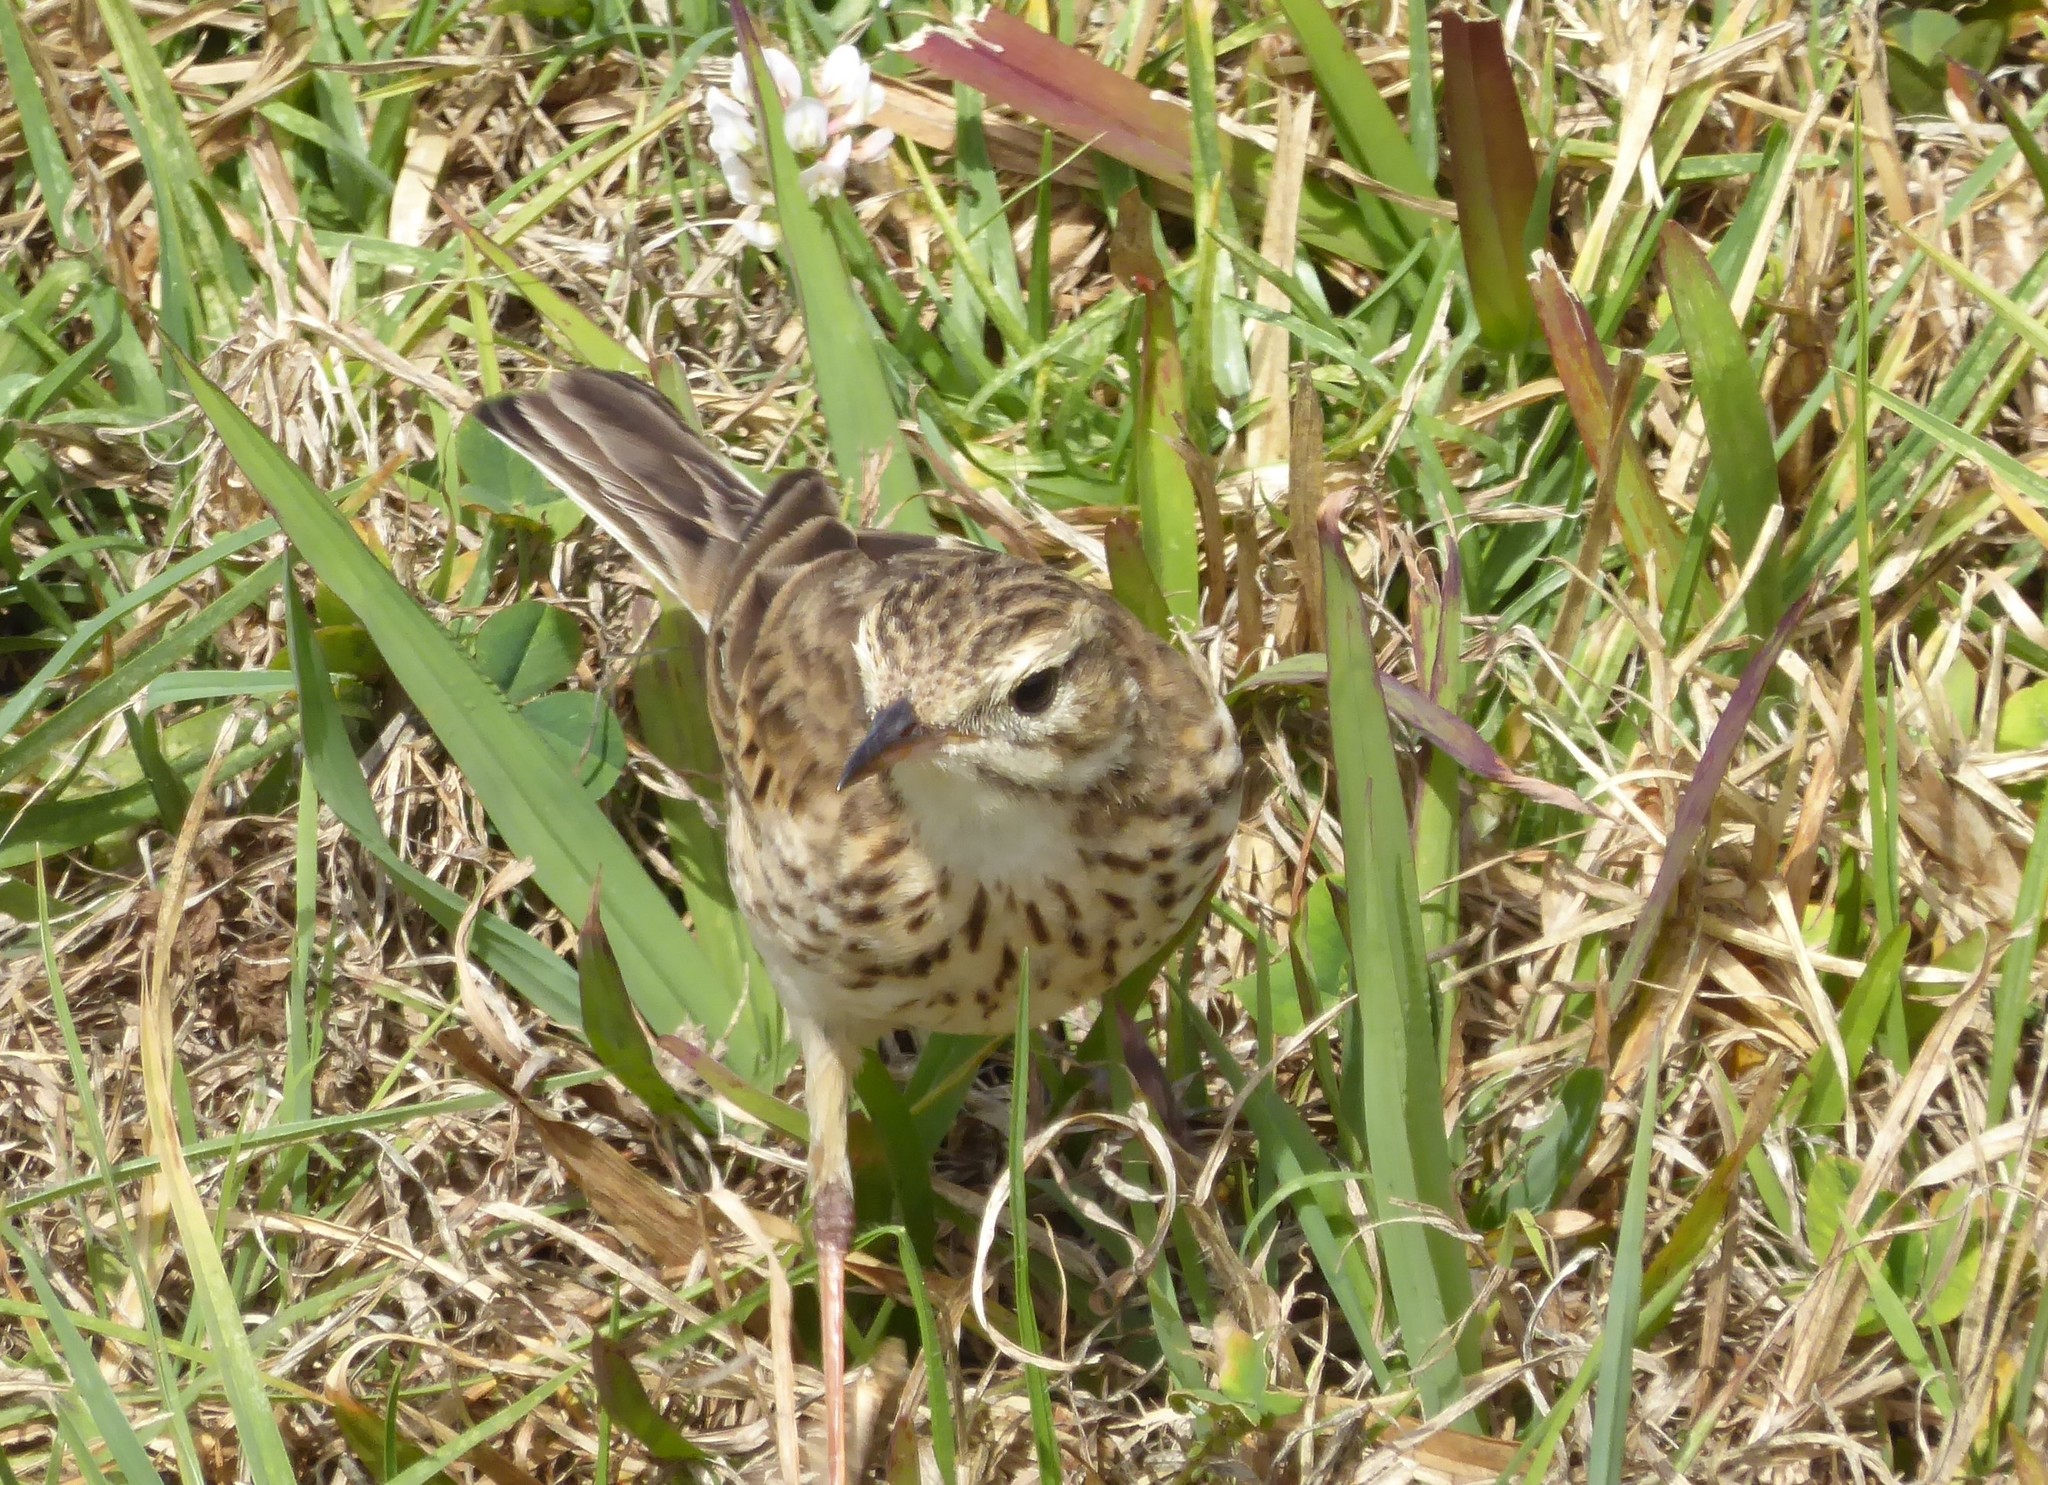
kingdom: Animalia
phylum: Chordata
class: Aves
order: Passeriformes
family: Motacillidae
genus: Anthus
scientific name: Anthus australis
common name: Australian pipit
